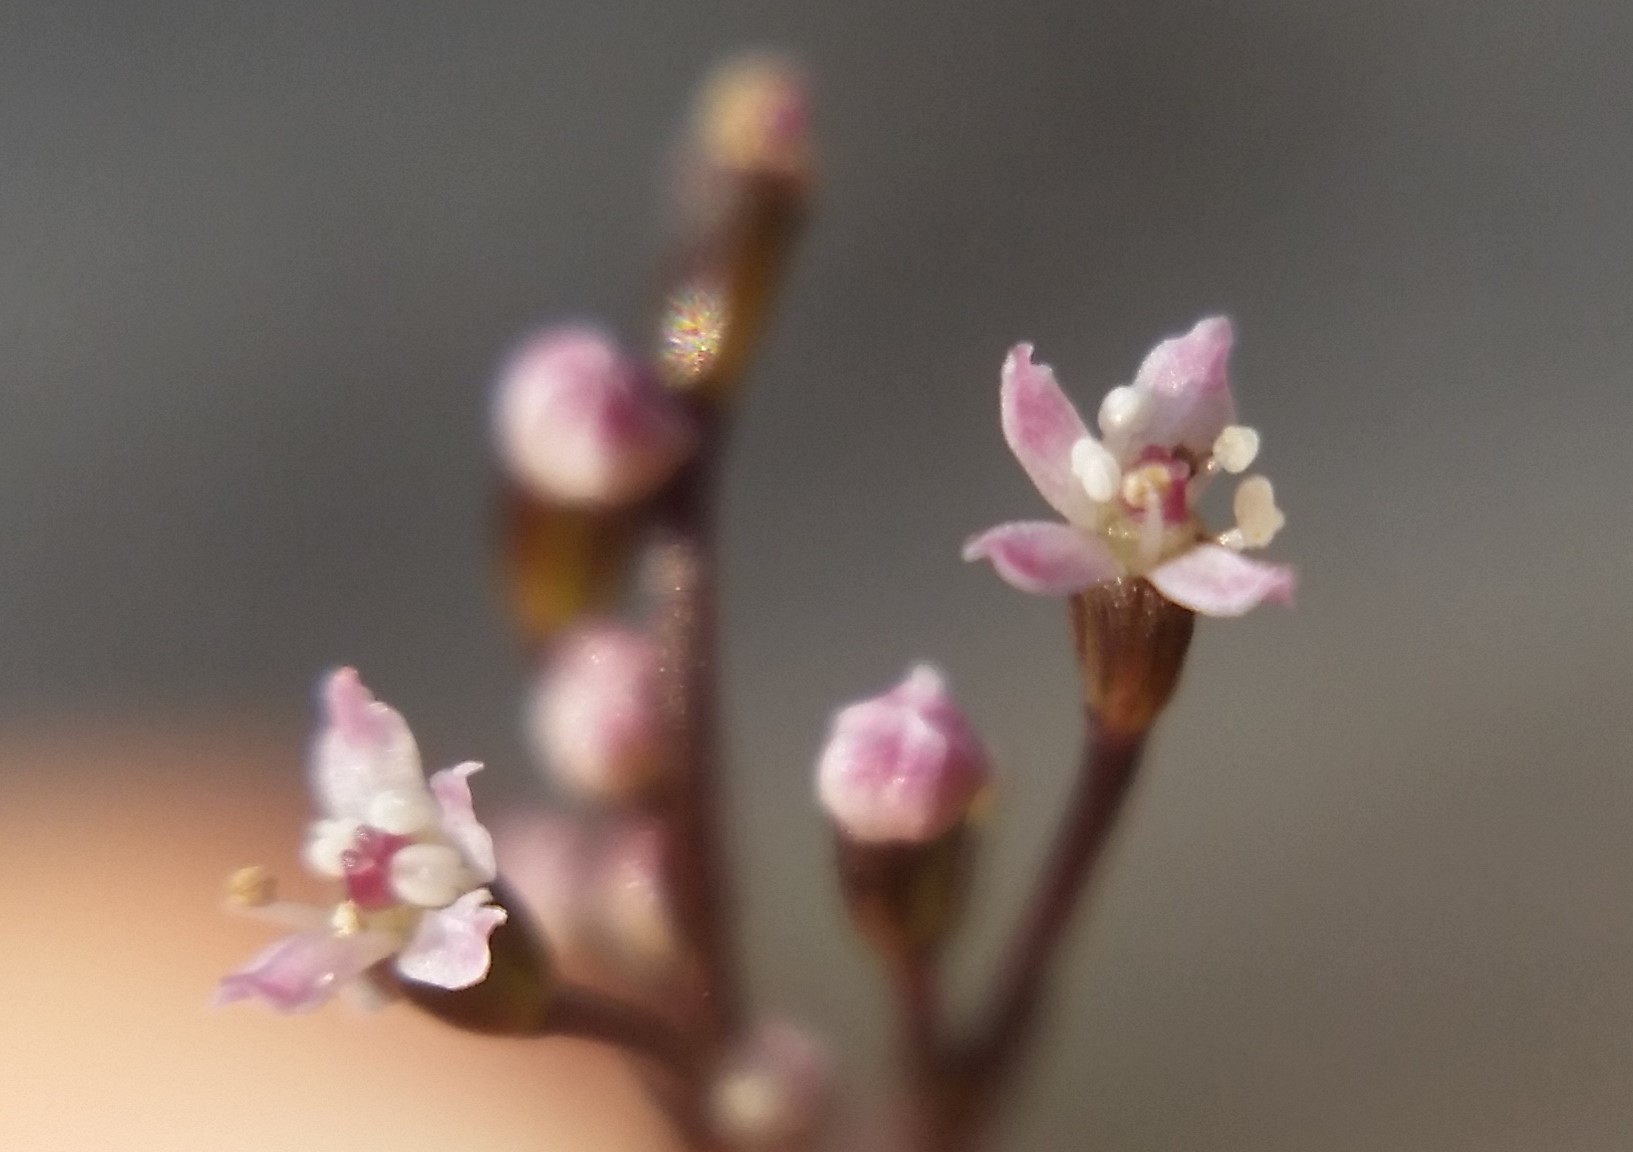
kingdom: Plantae
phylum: Tracheophyta
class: Magnoliopsida
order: Apiales
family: Apiaceae
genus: Cryptotaenia
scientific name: Cryptotaenia japonica
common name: Japanese cryptotaenia
